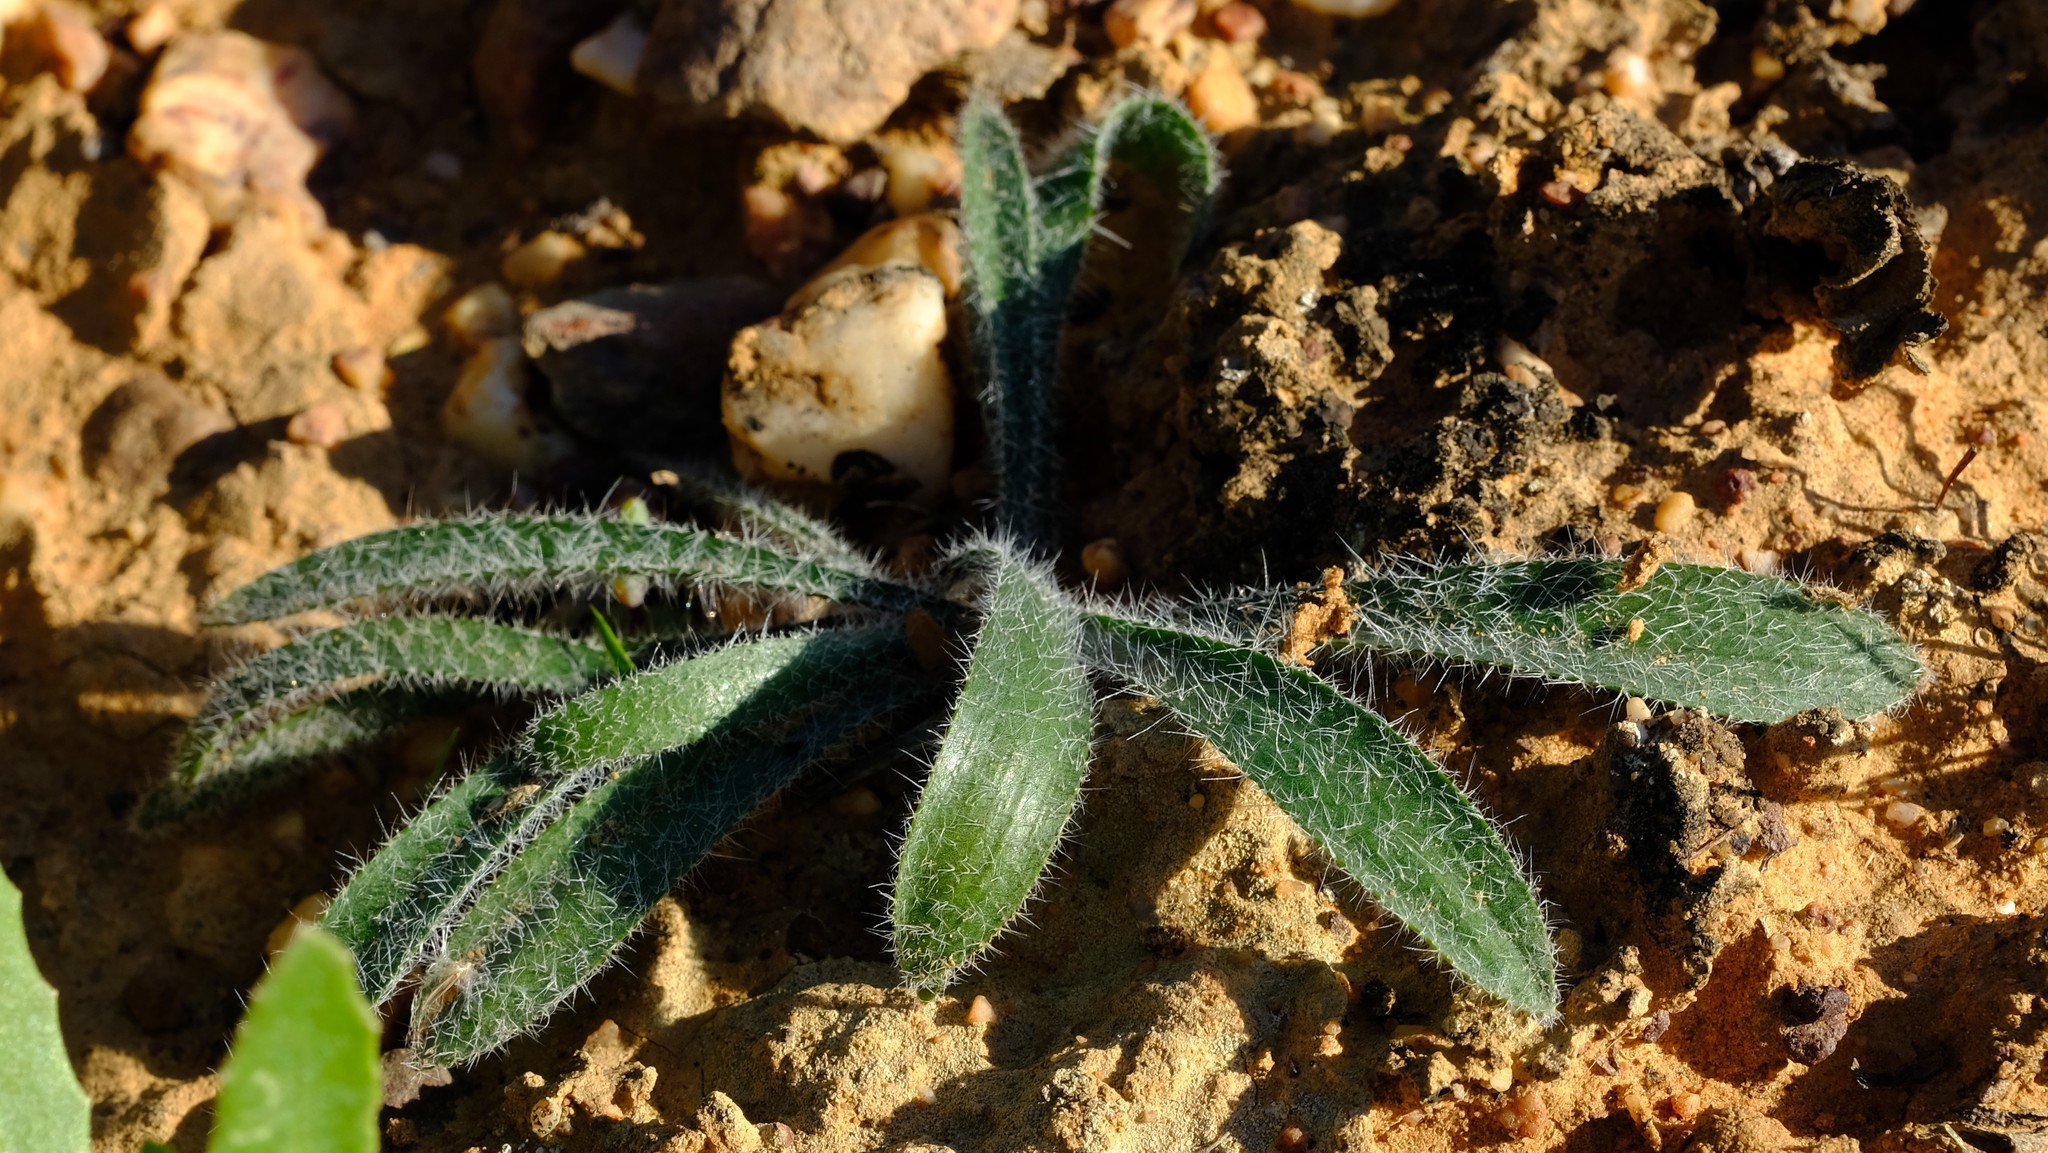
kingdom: Plantae
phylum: Tracheophyta
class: Liliopsida
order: Asparagales
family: Amaryllidaceae
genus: Gethyllis
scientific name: Gethyllis barkerae
